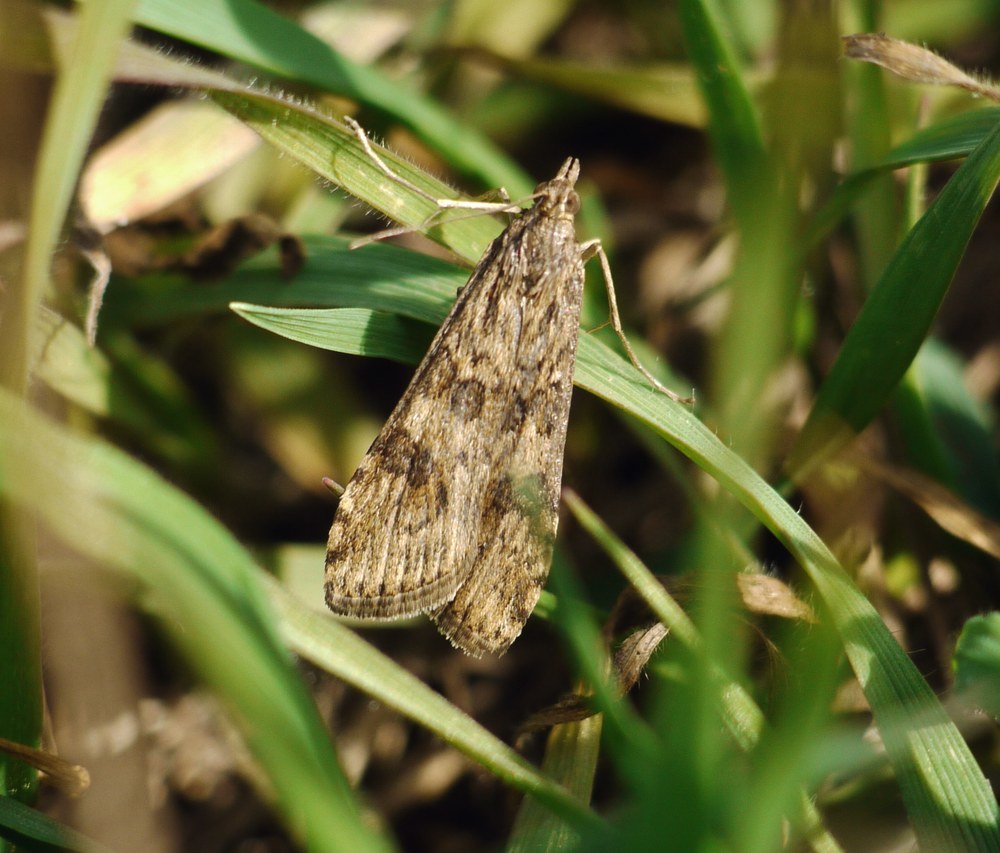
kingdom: Animalia
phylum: Arthropoda
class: Insecta
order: Lepidoptera
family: Crambidae
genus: Nomophila
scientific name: Nomophila noctuella
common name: Rush veneer
